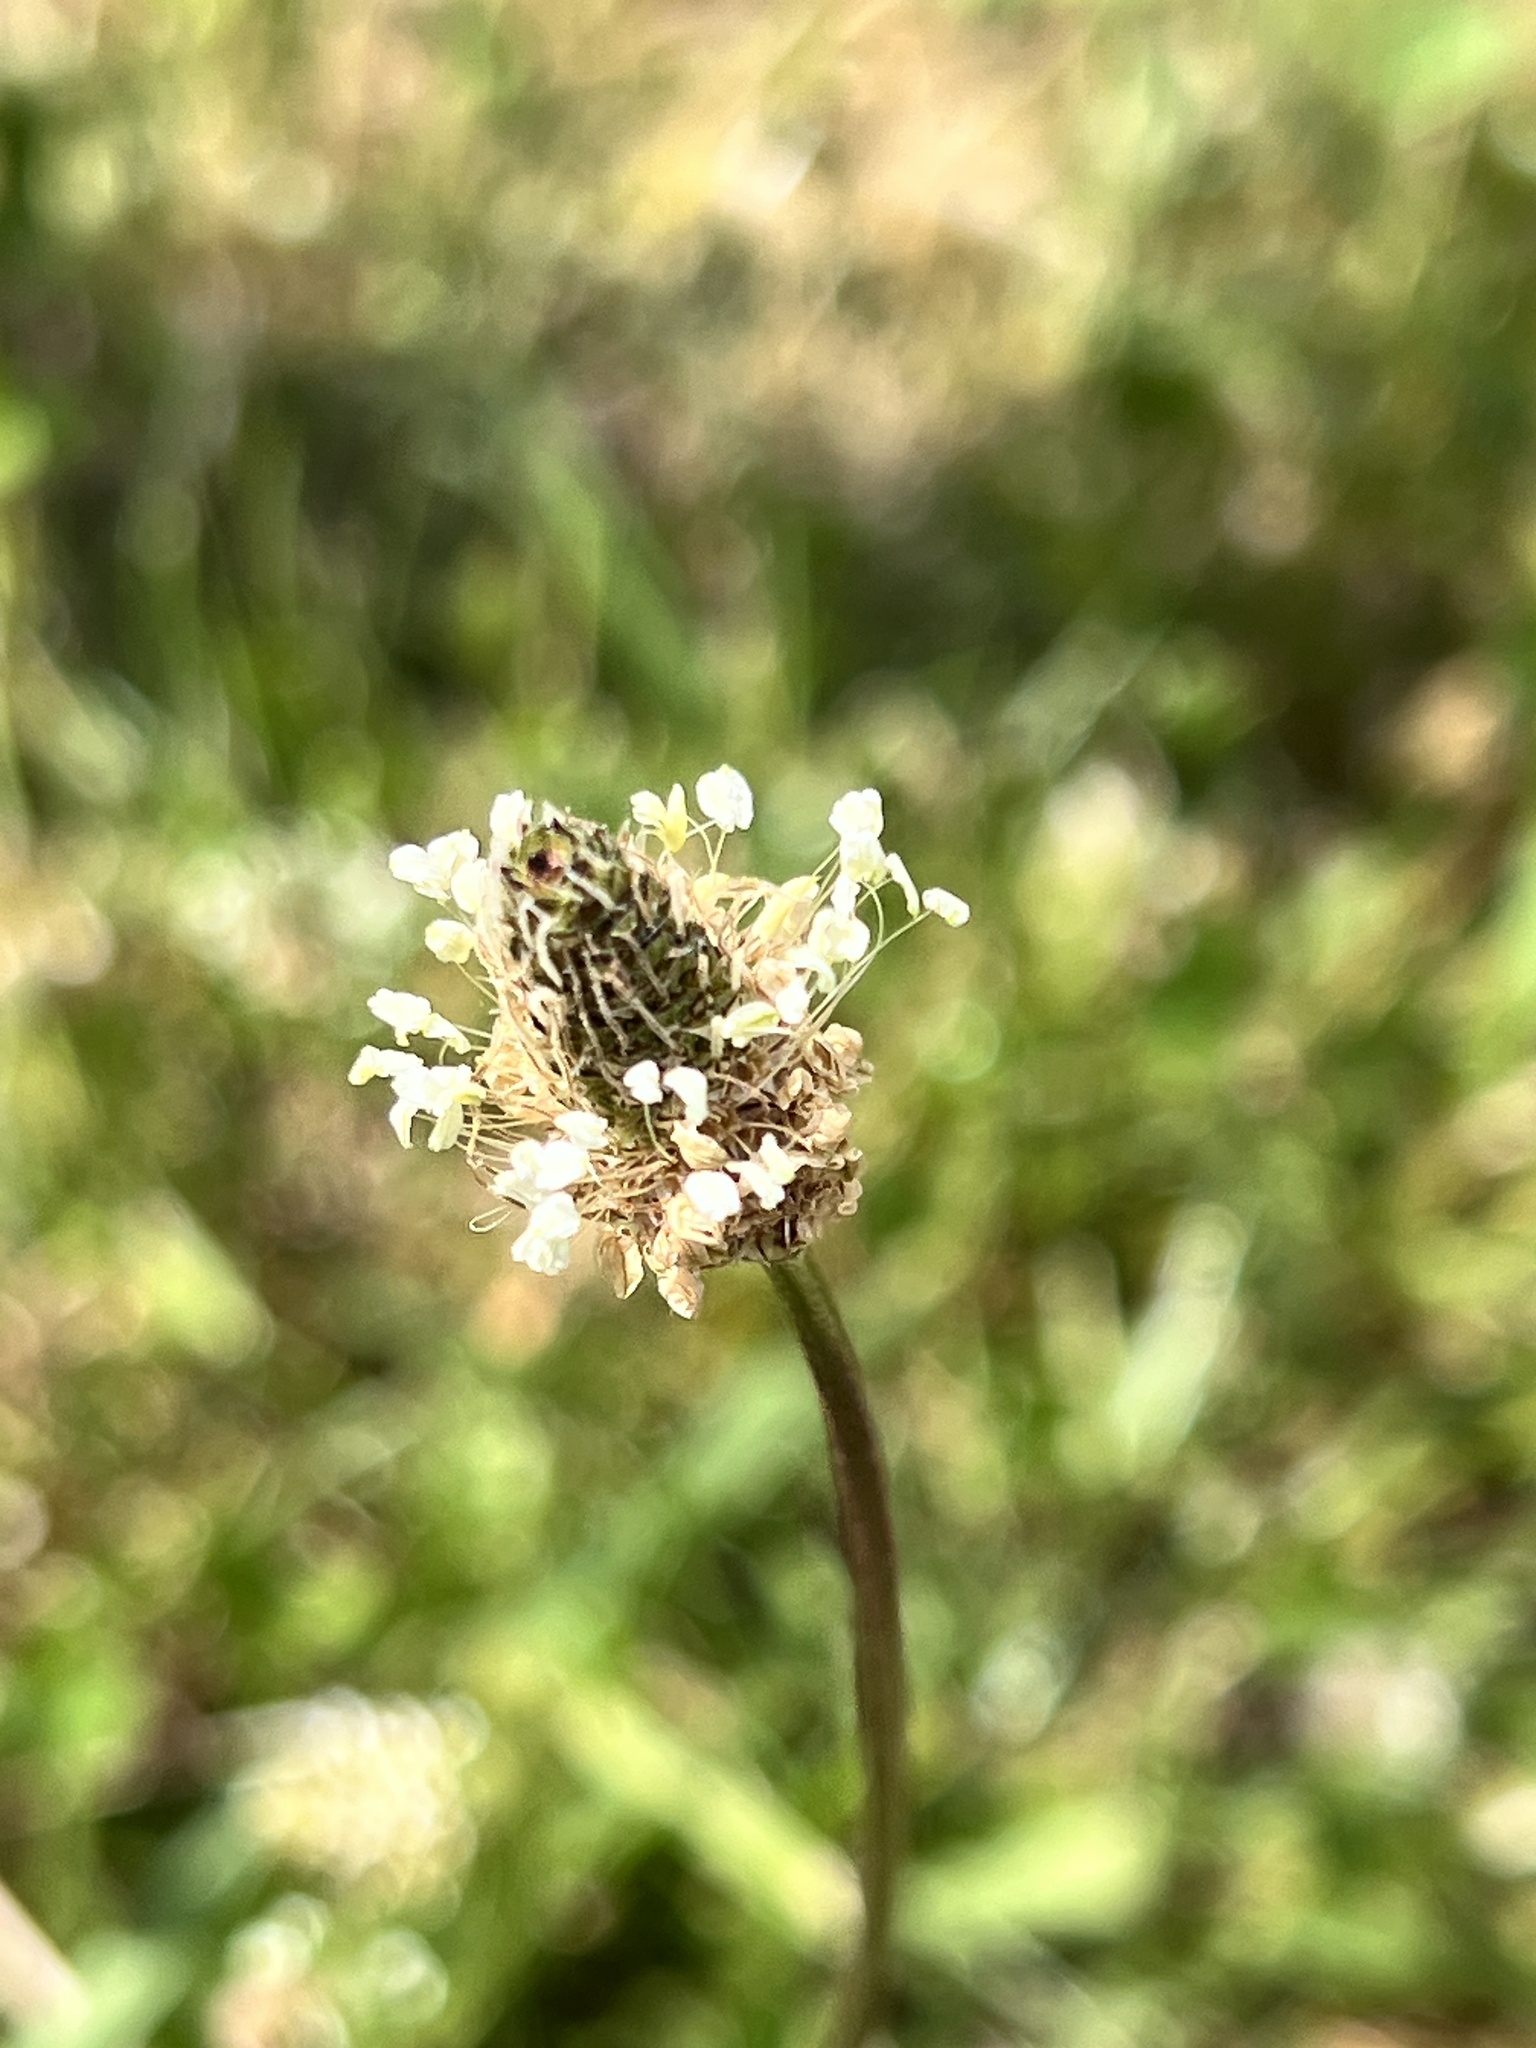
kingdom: Plantae
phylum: Tracheophyta
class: Magnoliopsida
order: Lamiales
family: Plantaginaceae
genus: Plantago
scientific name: Plantago lanceolata
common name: Ribwort plantain
